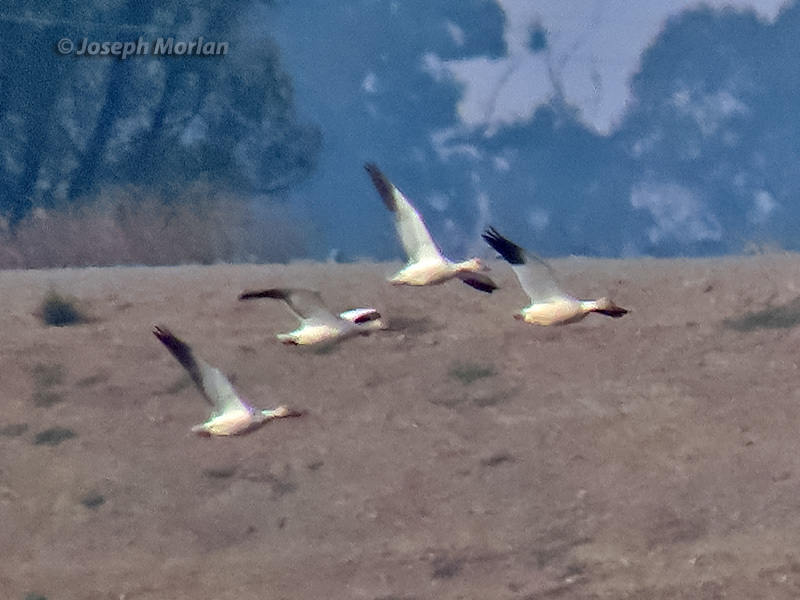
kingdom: Animalia
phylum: Chordata
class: Aves
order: Anseriformes
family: Anatidae
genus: Anser
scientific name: Anser caerulescens
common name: Snow goose
